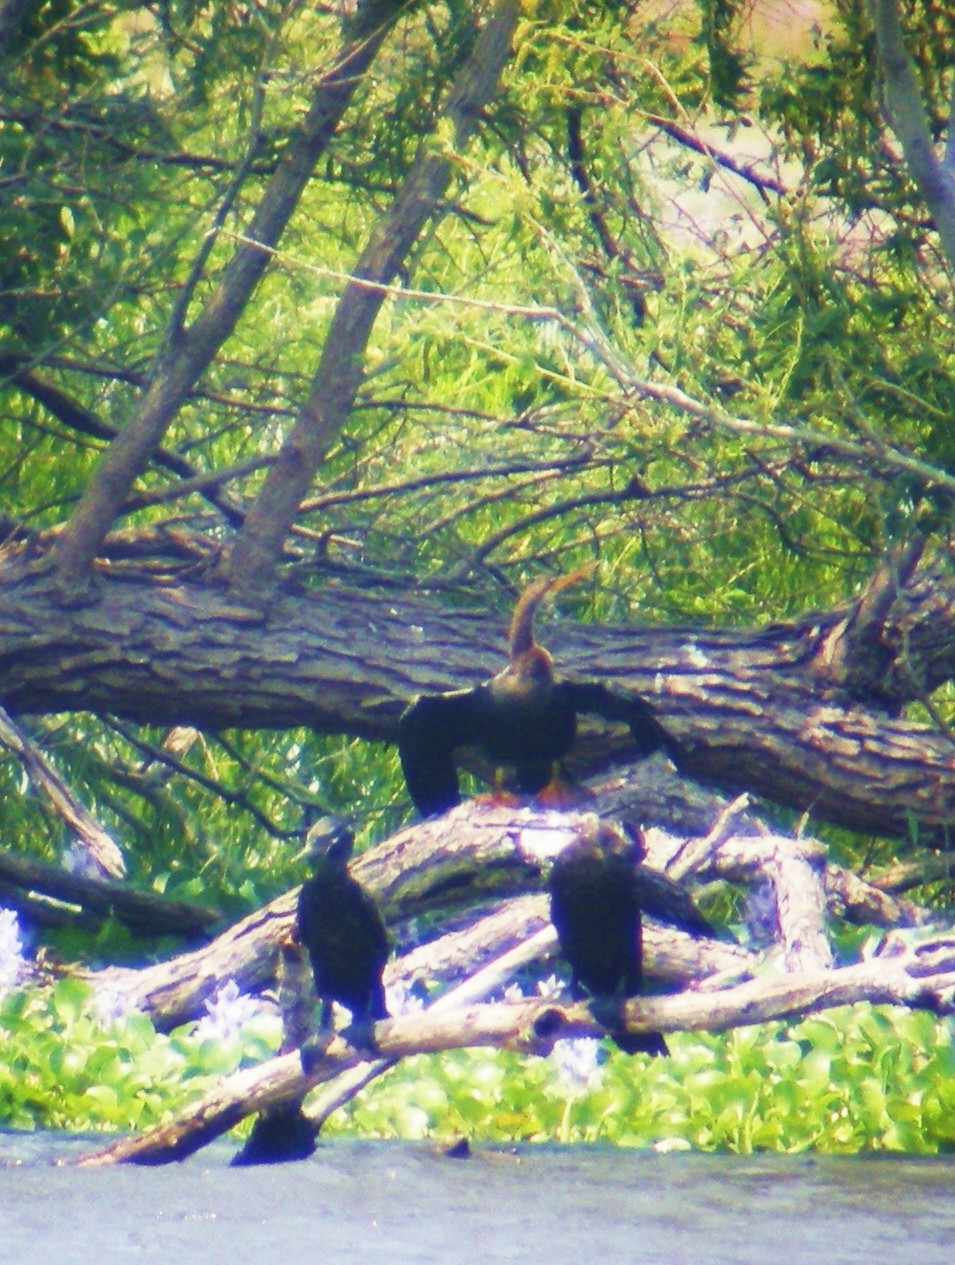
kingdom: Animalia
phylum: Chordata
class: Aves
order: Suliformes
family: Anhingidae
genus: Anhinga
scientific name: Anhinga anhinga
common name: Anhinga
